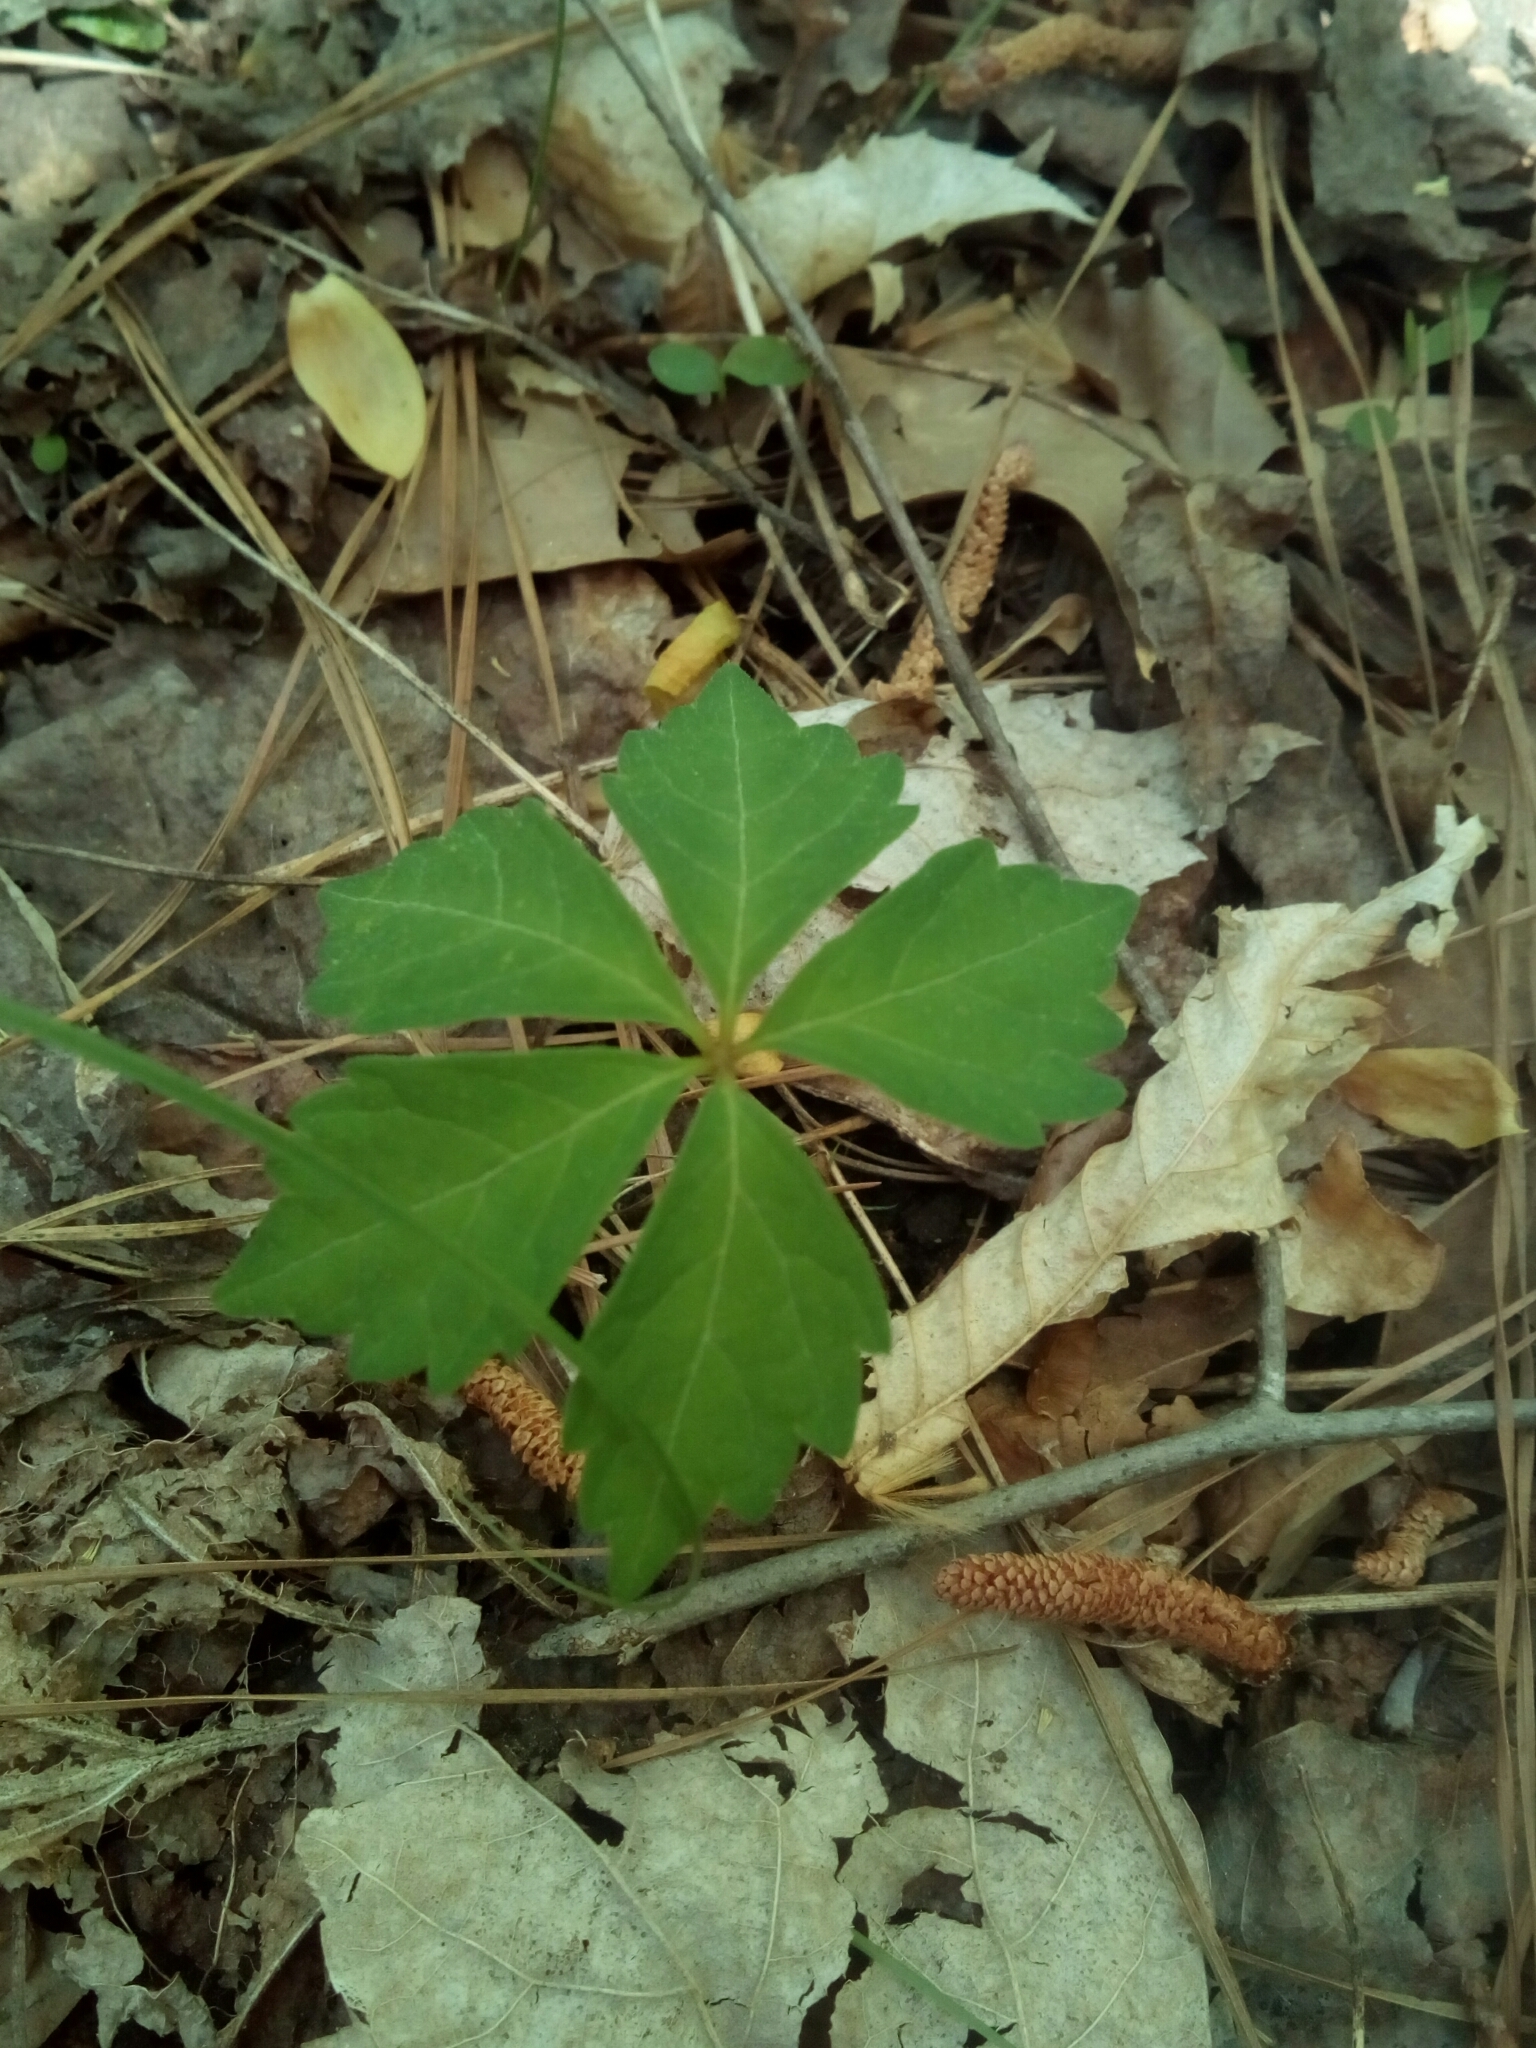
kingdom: Plantae
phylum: Tracheophyta
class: Magnoliopsida
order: Vitales
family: Vitaceae
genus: Parthenocissus
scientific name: Parthenocissus quinquefolia
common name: Virginia-creeper
